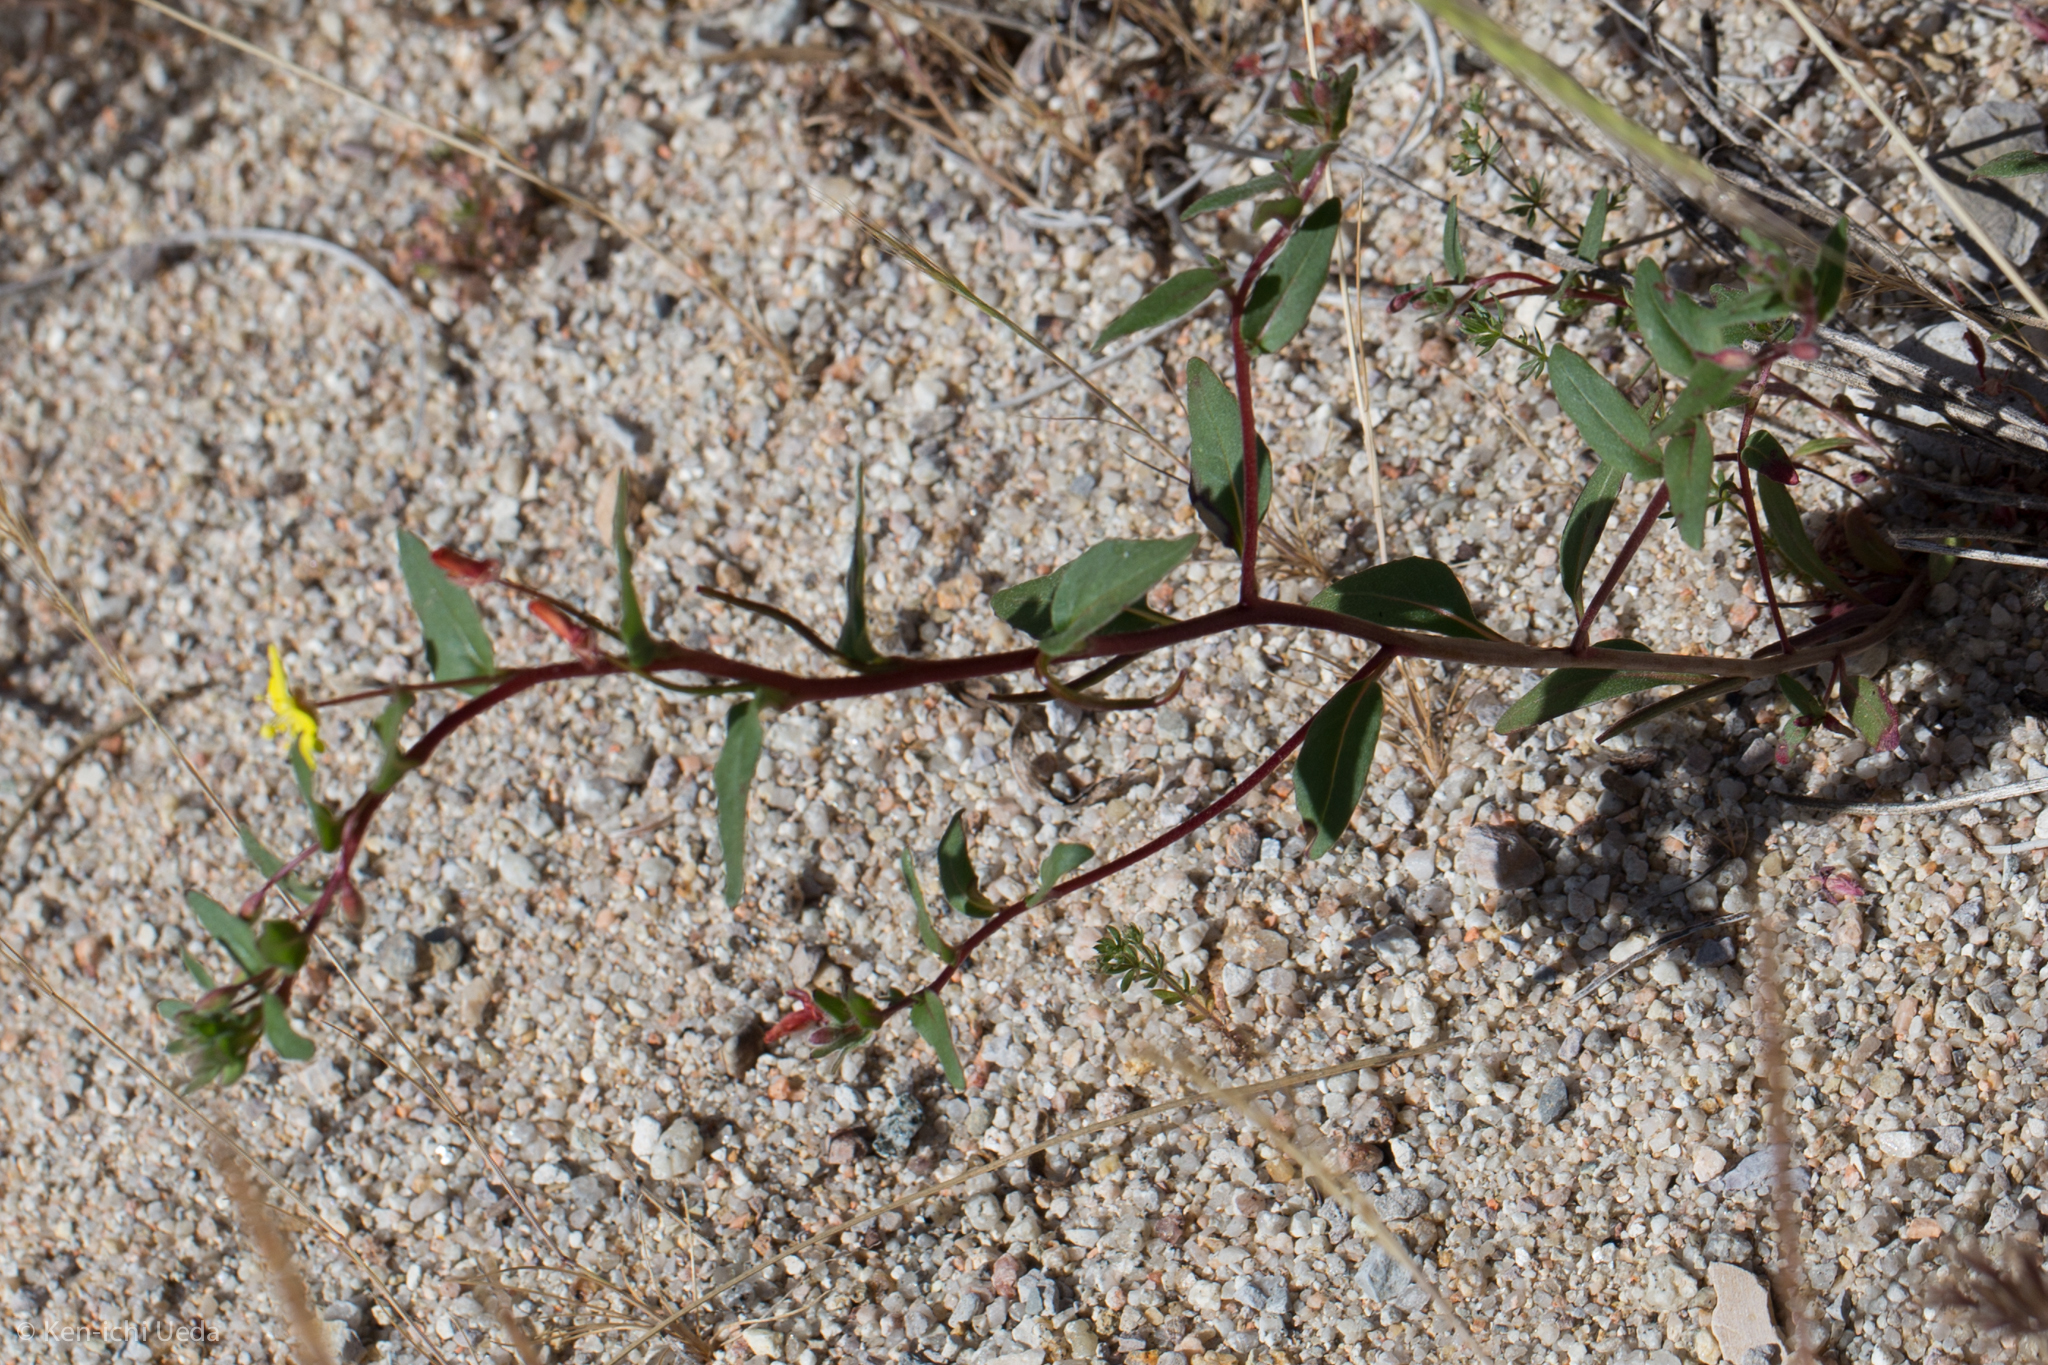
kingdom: Plantae
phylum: Tracheophyta
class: Magnoliopsida
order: Myrtales
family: Onagraceae
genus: Camissoniopsis
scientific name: Camissoniopsis ignota
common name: Jurupa hills suncup
